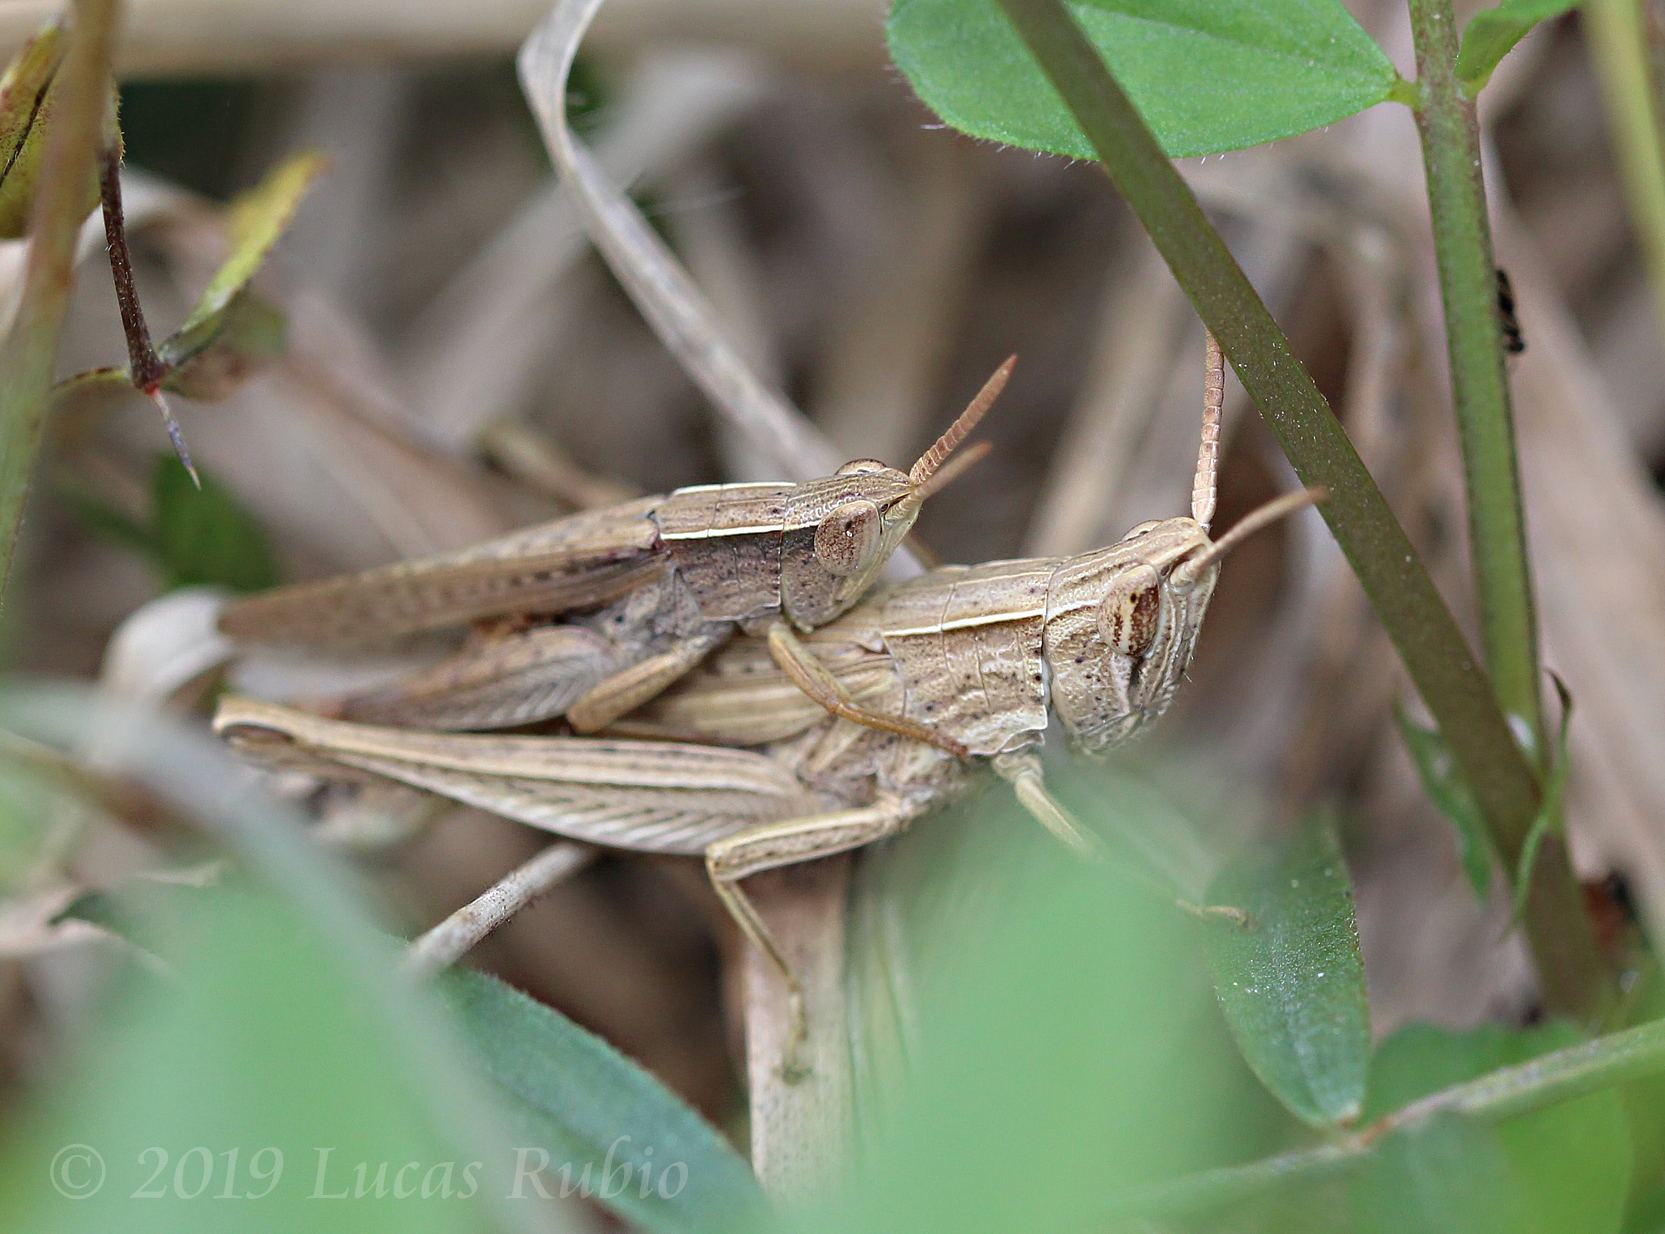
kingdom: Animalia
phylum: Arthropoda
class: Insecta
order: Orthoptera
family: Acrididae
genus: Laplatacris
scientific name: Laplatacris dispar
